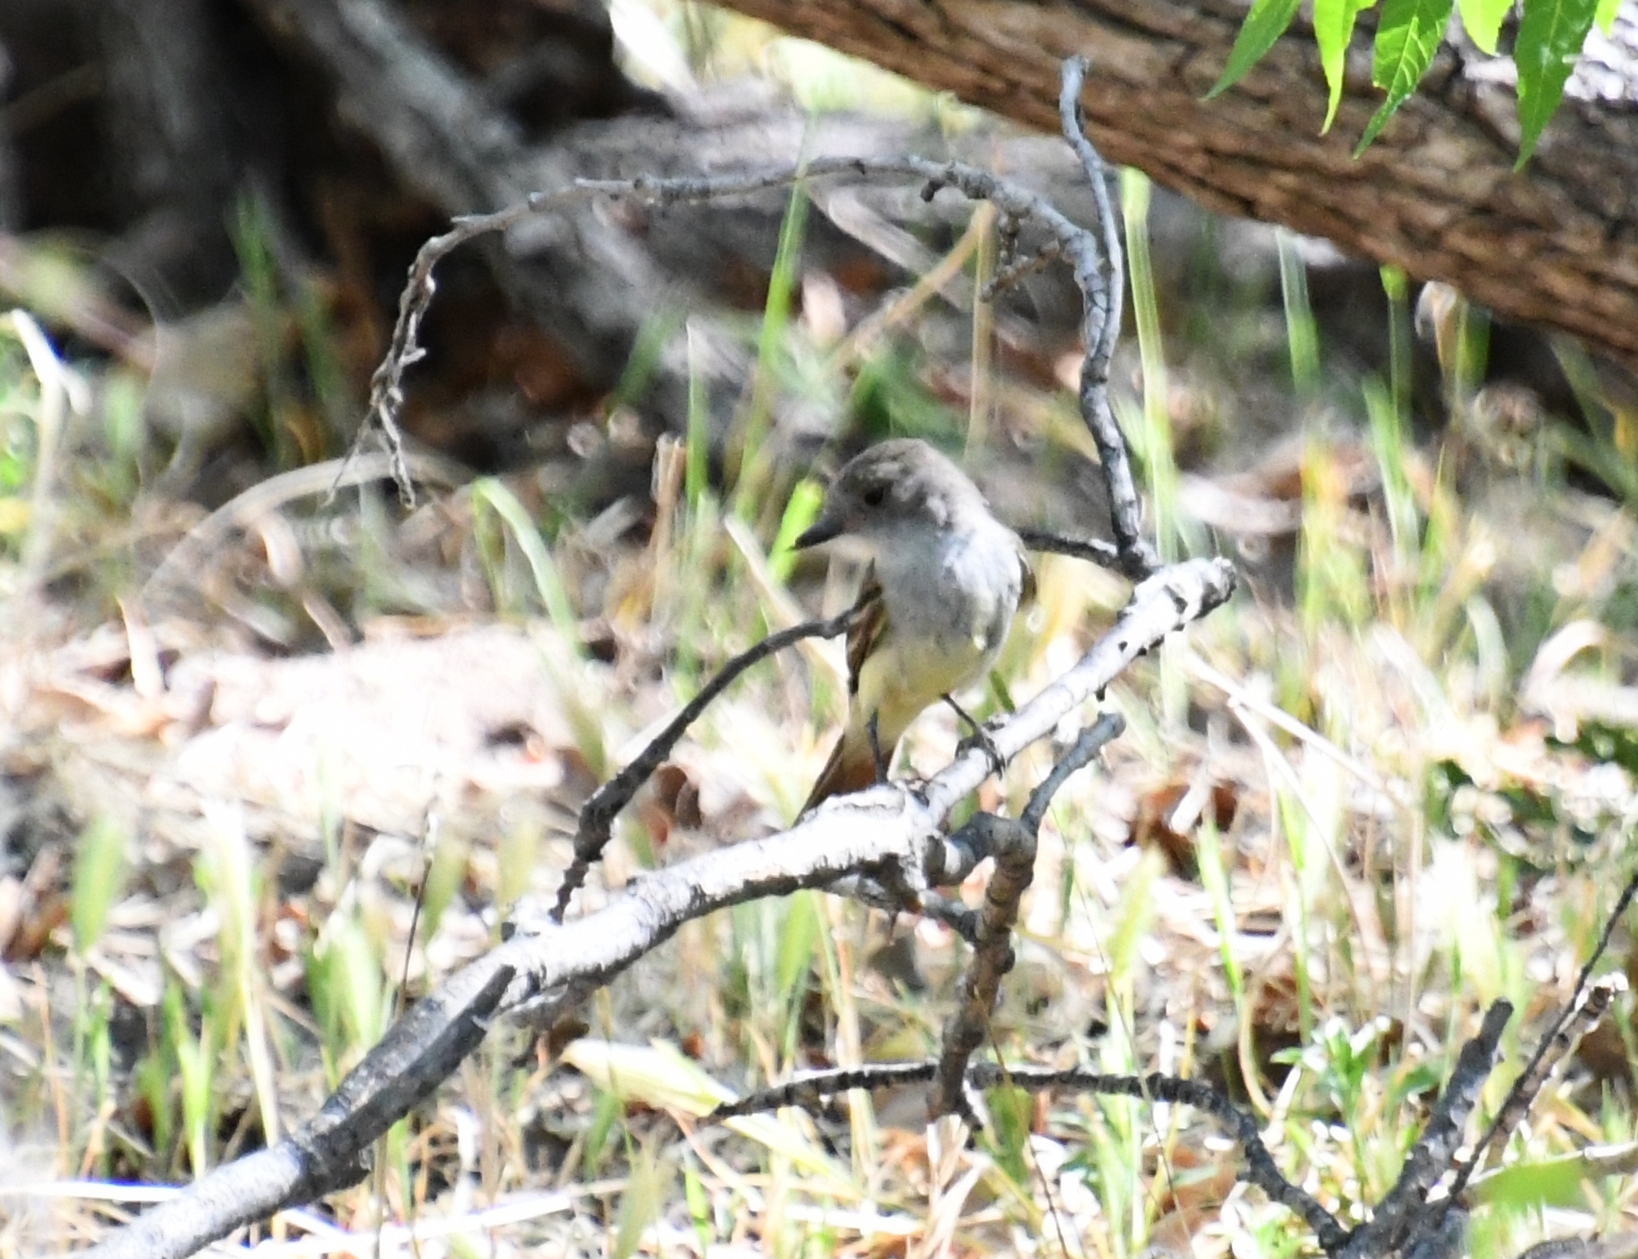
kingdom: Animalia
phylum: Chordata
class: Aves
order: Passeriformes
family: Tyrannidae
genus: Myiarchus
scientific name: Myiarchus nuttingi
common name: Nutting's flycatcher
